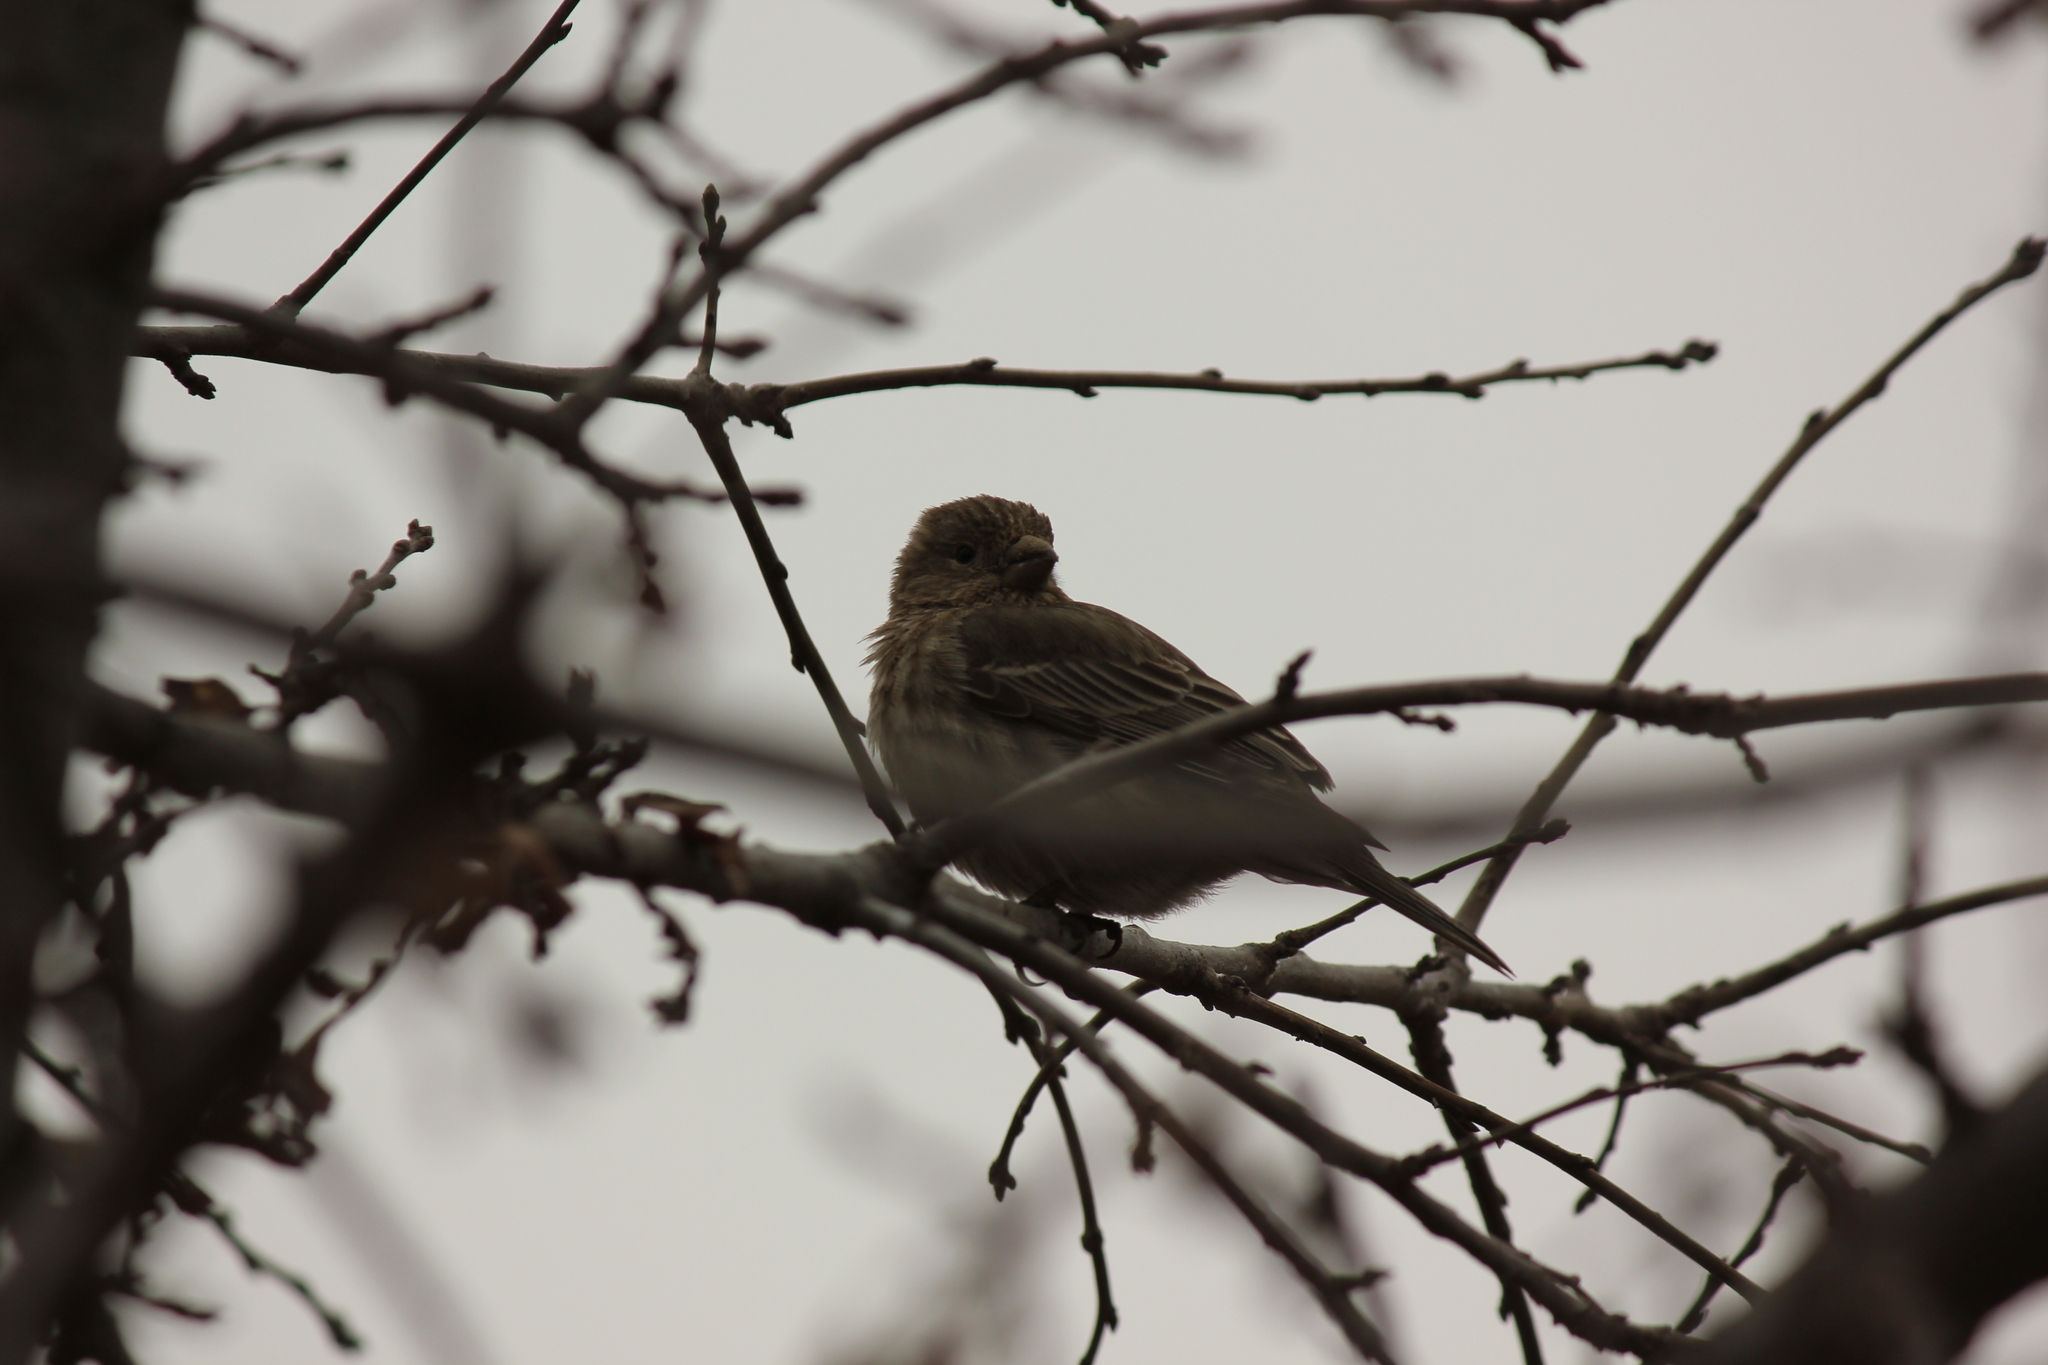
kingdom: Animalia
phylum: Chordata
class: Aves
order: Passeriformes
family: Fringillidae
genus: Haemorhous
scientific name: Haemorhous mexicanus
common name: House finch
